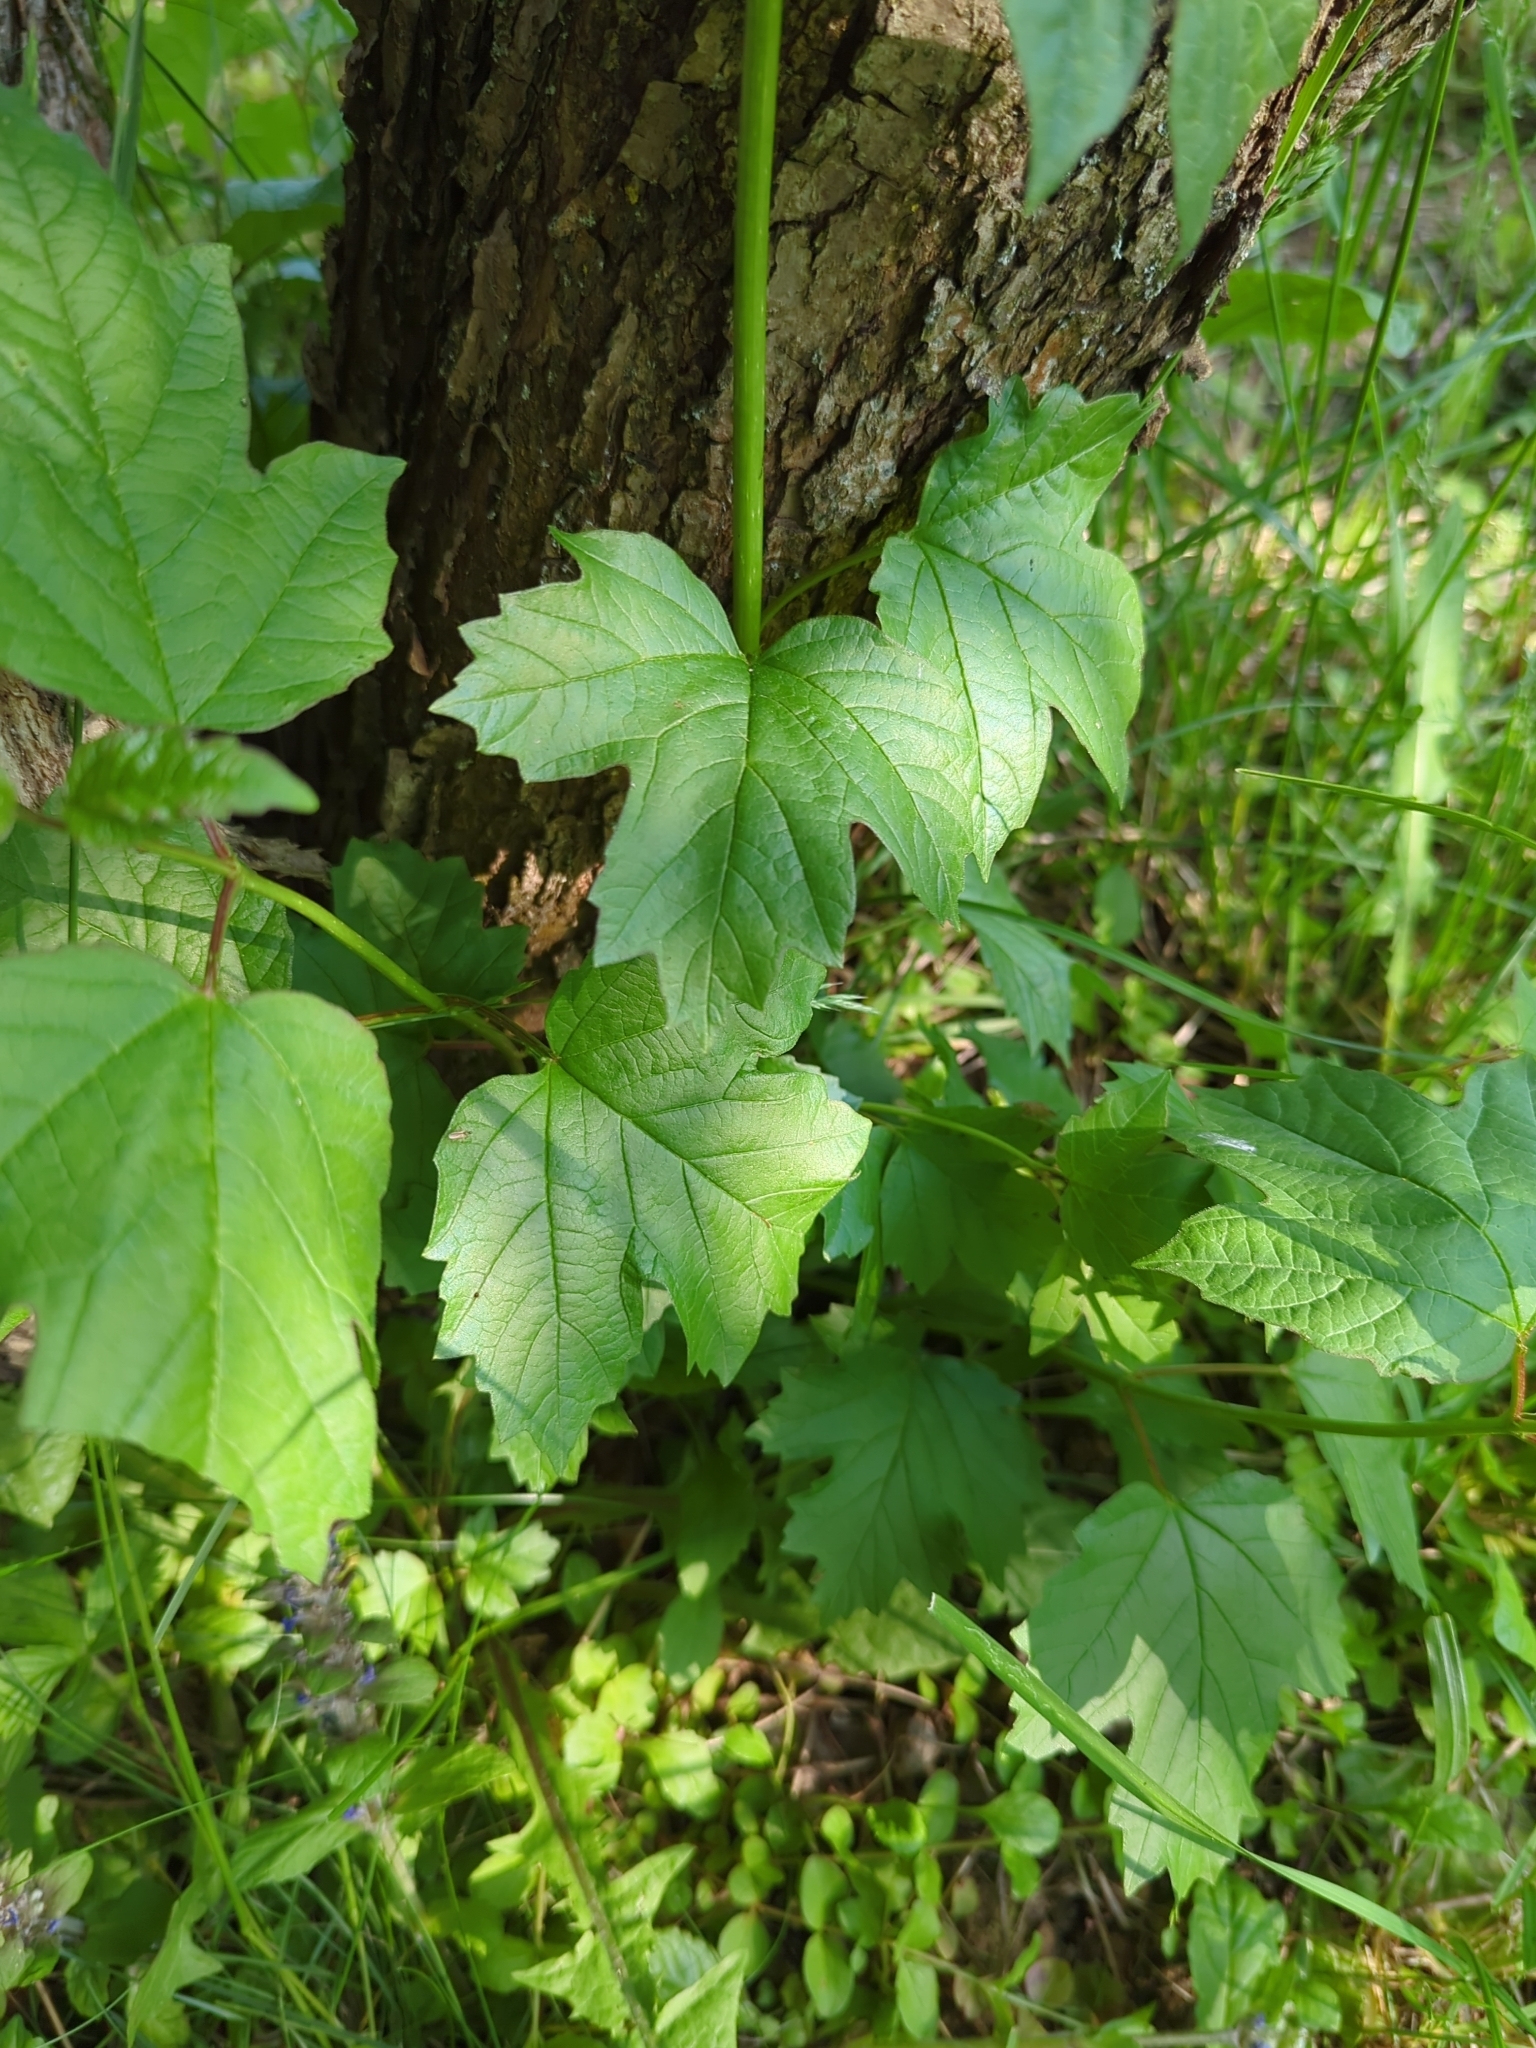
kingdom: Plantae
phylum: Tracheophyta
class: Magnoliopsida
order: Dipsacales
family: Viburnaceae
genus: Viburnum
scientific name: Viburnum opulus
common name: Guelder-rose
